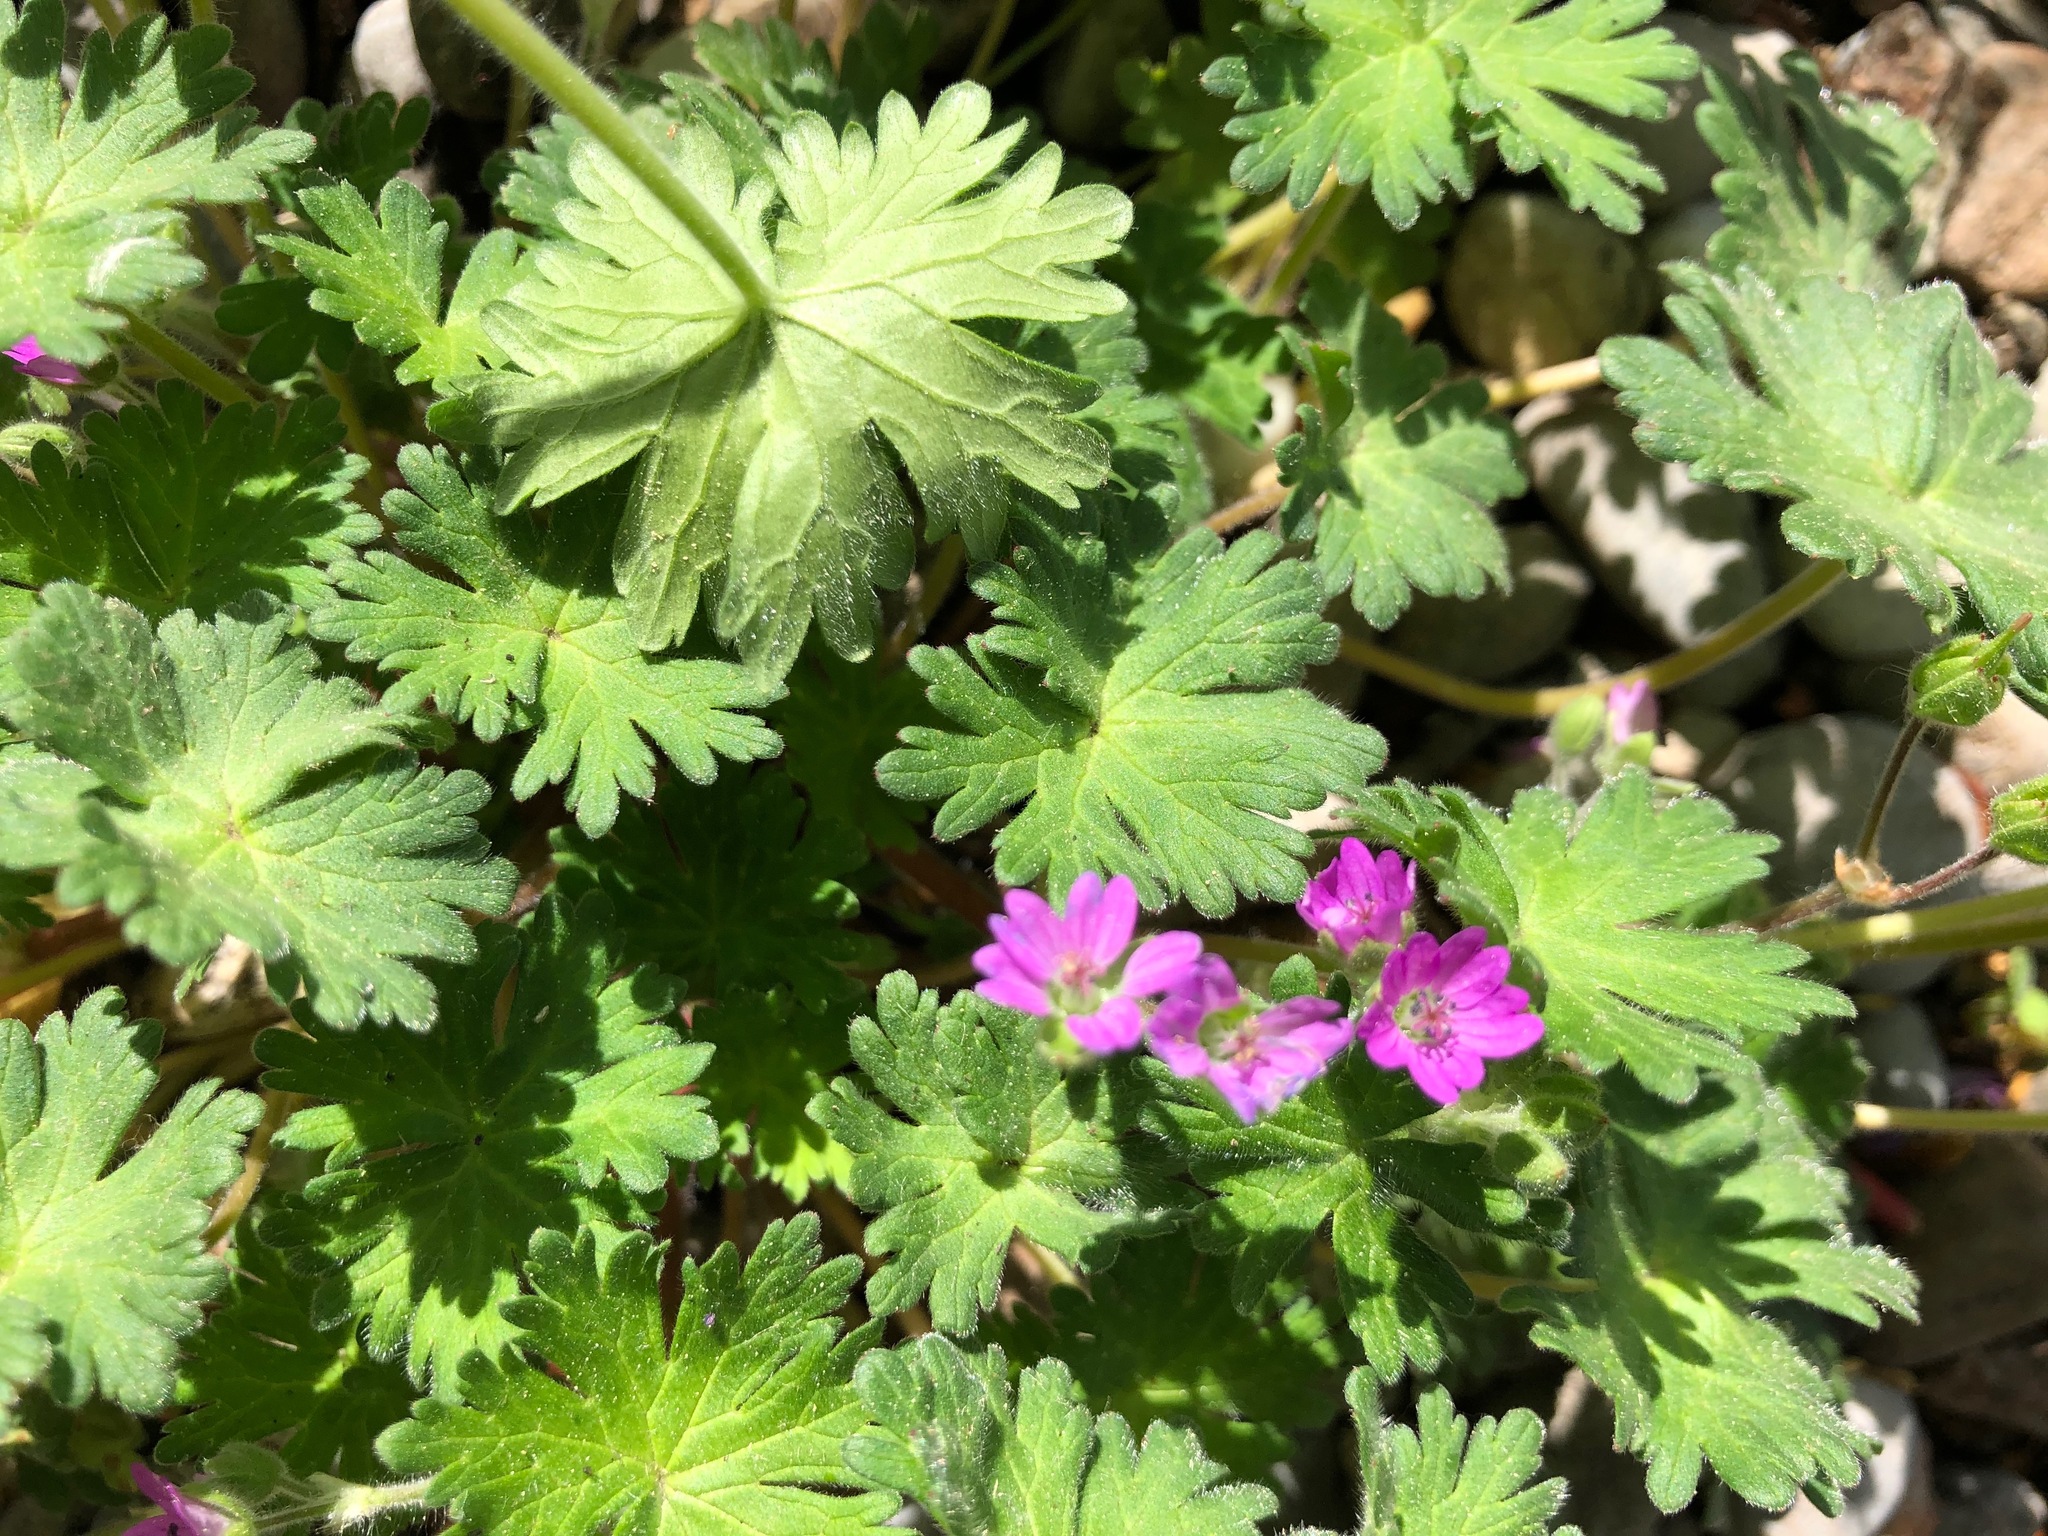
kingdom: Plantae
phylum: Tracheophyta
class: Magnoliopsida
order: Geraniales
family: Geraniaceae
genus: Geranium
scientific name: Geranium molle
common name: Dove's-foot crane's-bill
